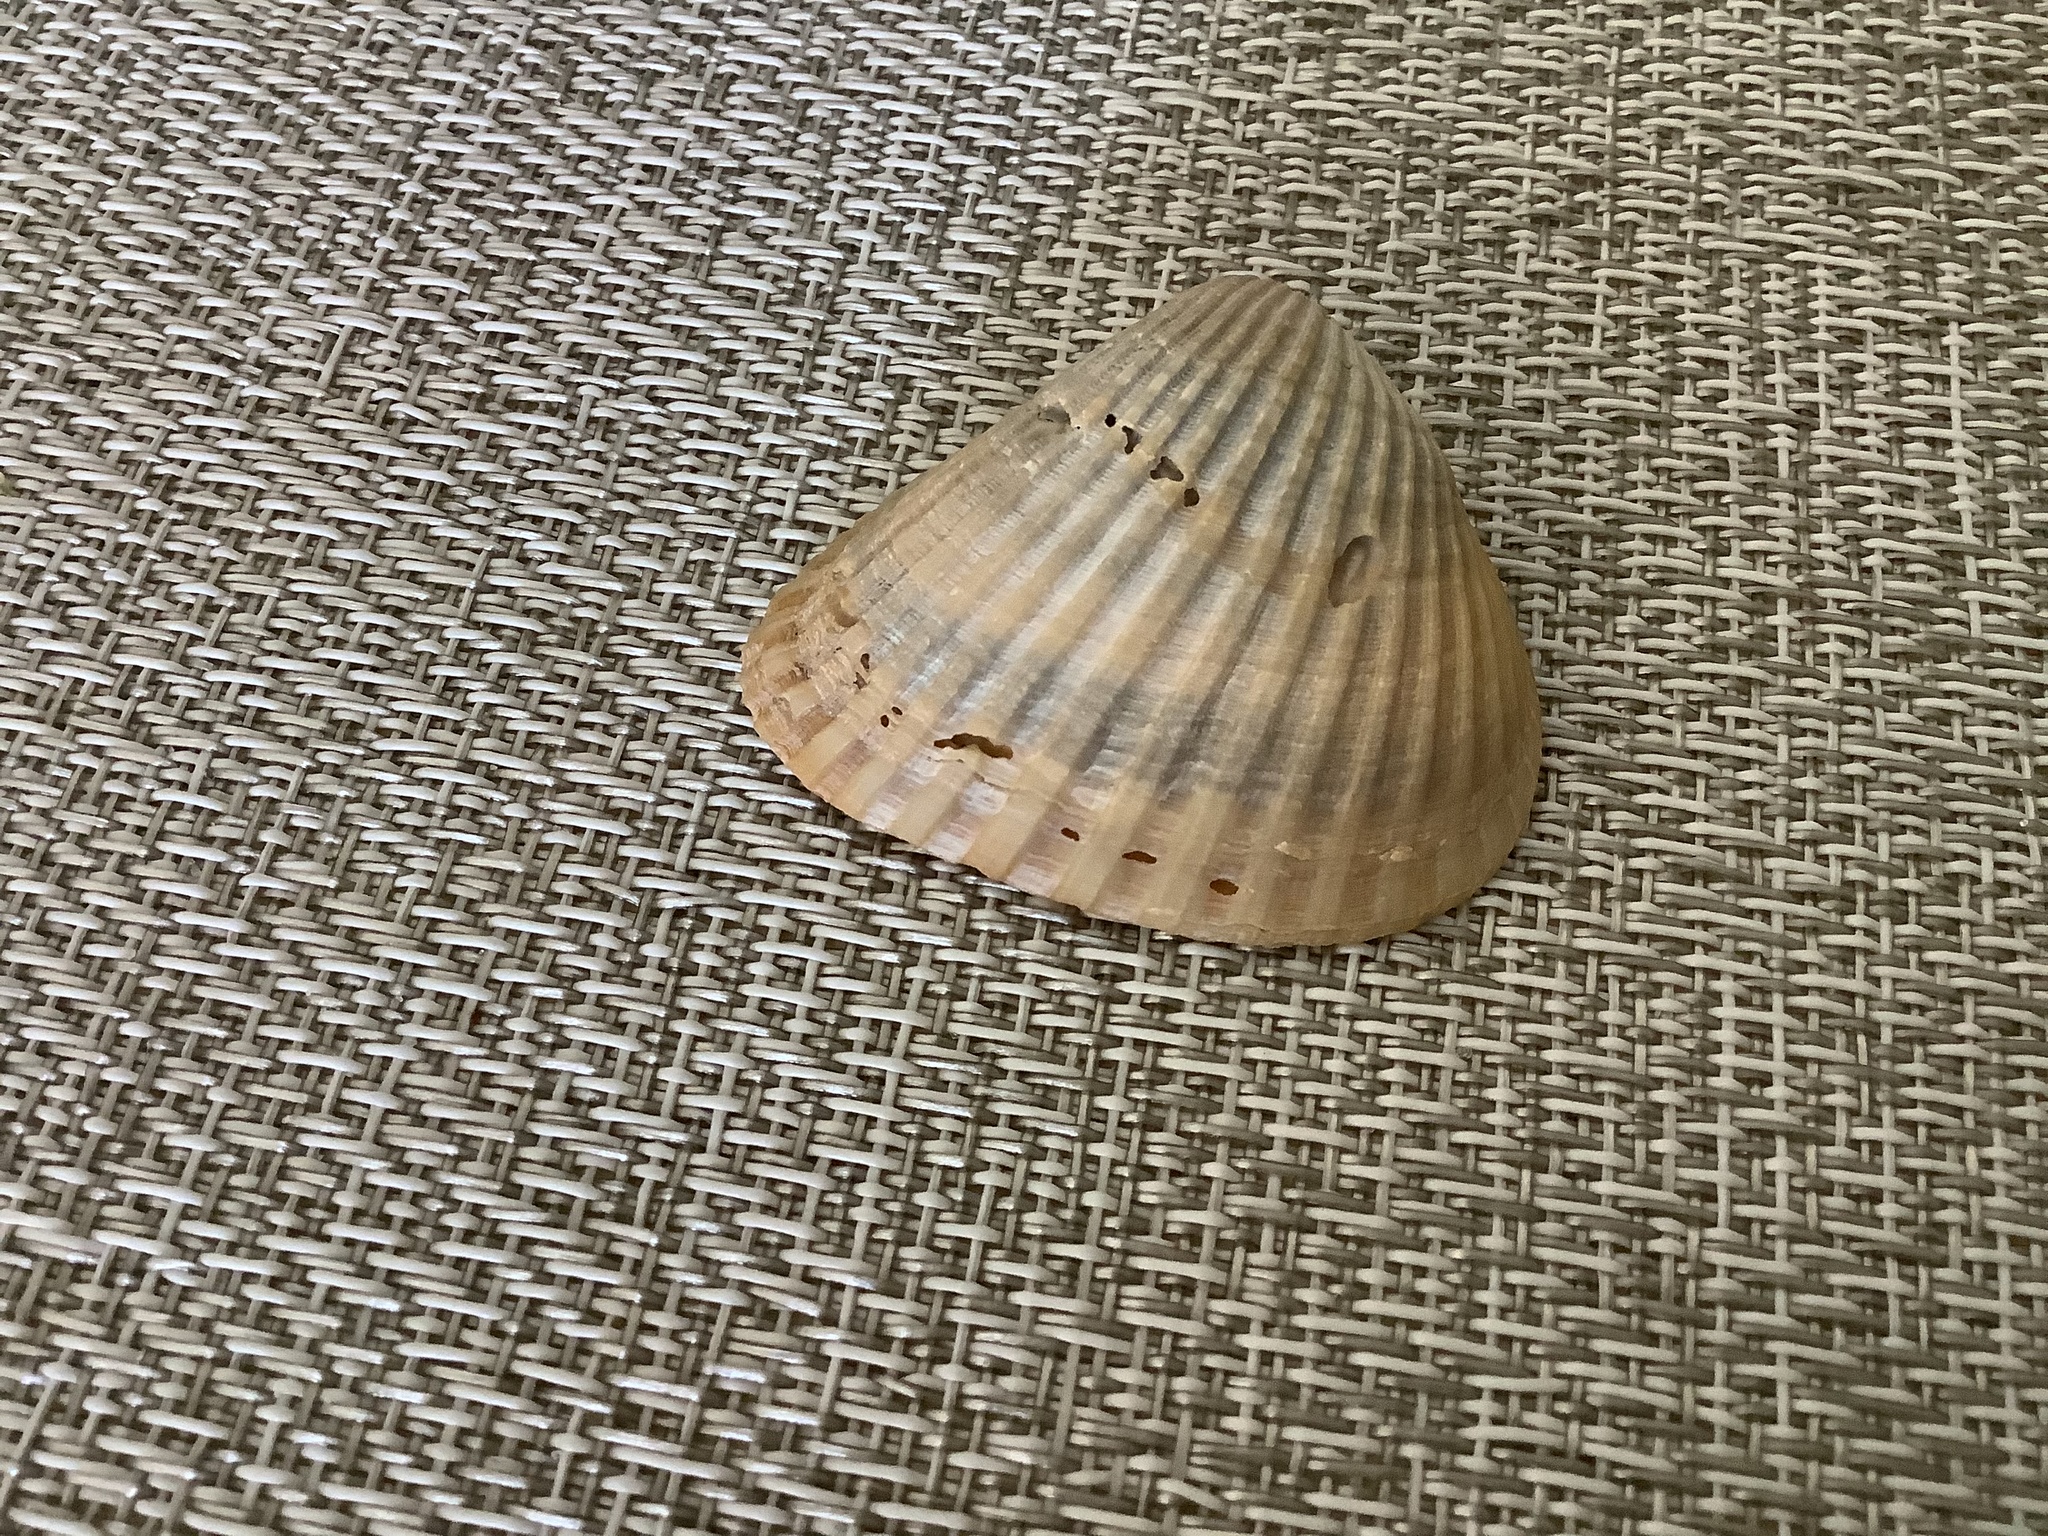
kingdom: Animalia
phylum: Mollusca
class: Bivalvia
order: Arcida
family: Noetiidae
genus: Noetia
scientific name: Noetia ponderosa
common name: Ponderous ark
